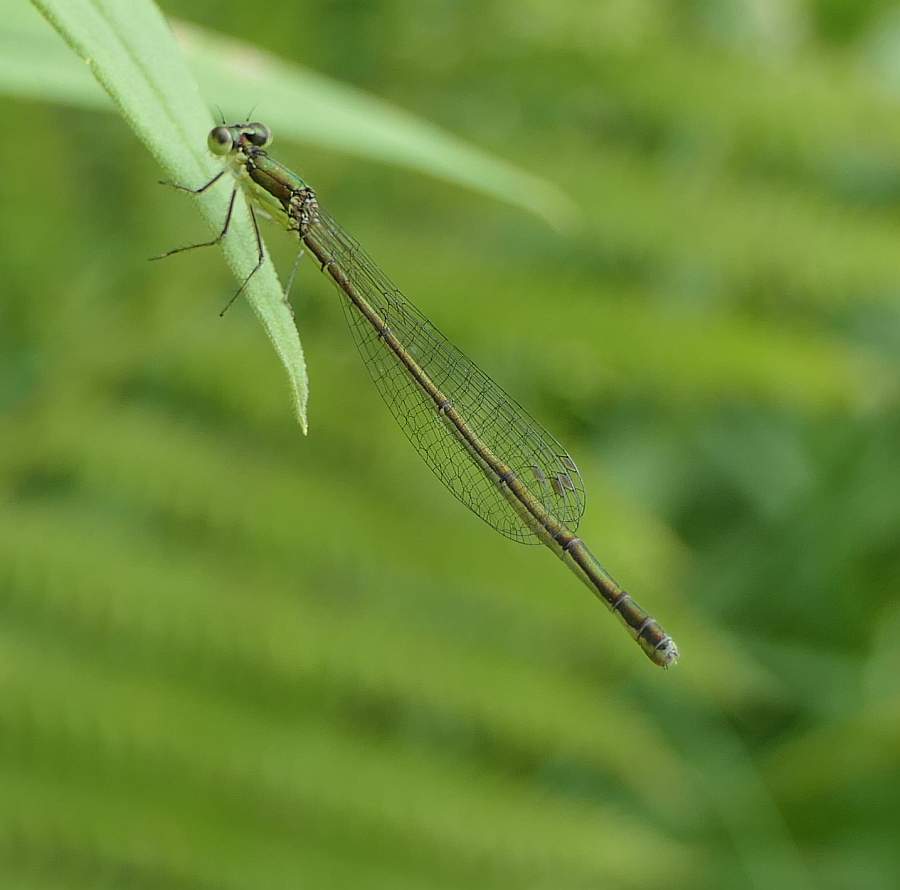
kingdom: Animalia
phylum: Arthropoda
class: Insecta
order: Odonata
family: Coenagrionidae
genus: Nehalennia
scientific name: Nehalennia irene
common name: Sedge sprite
